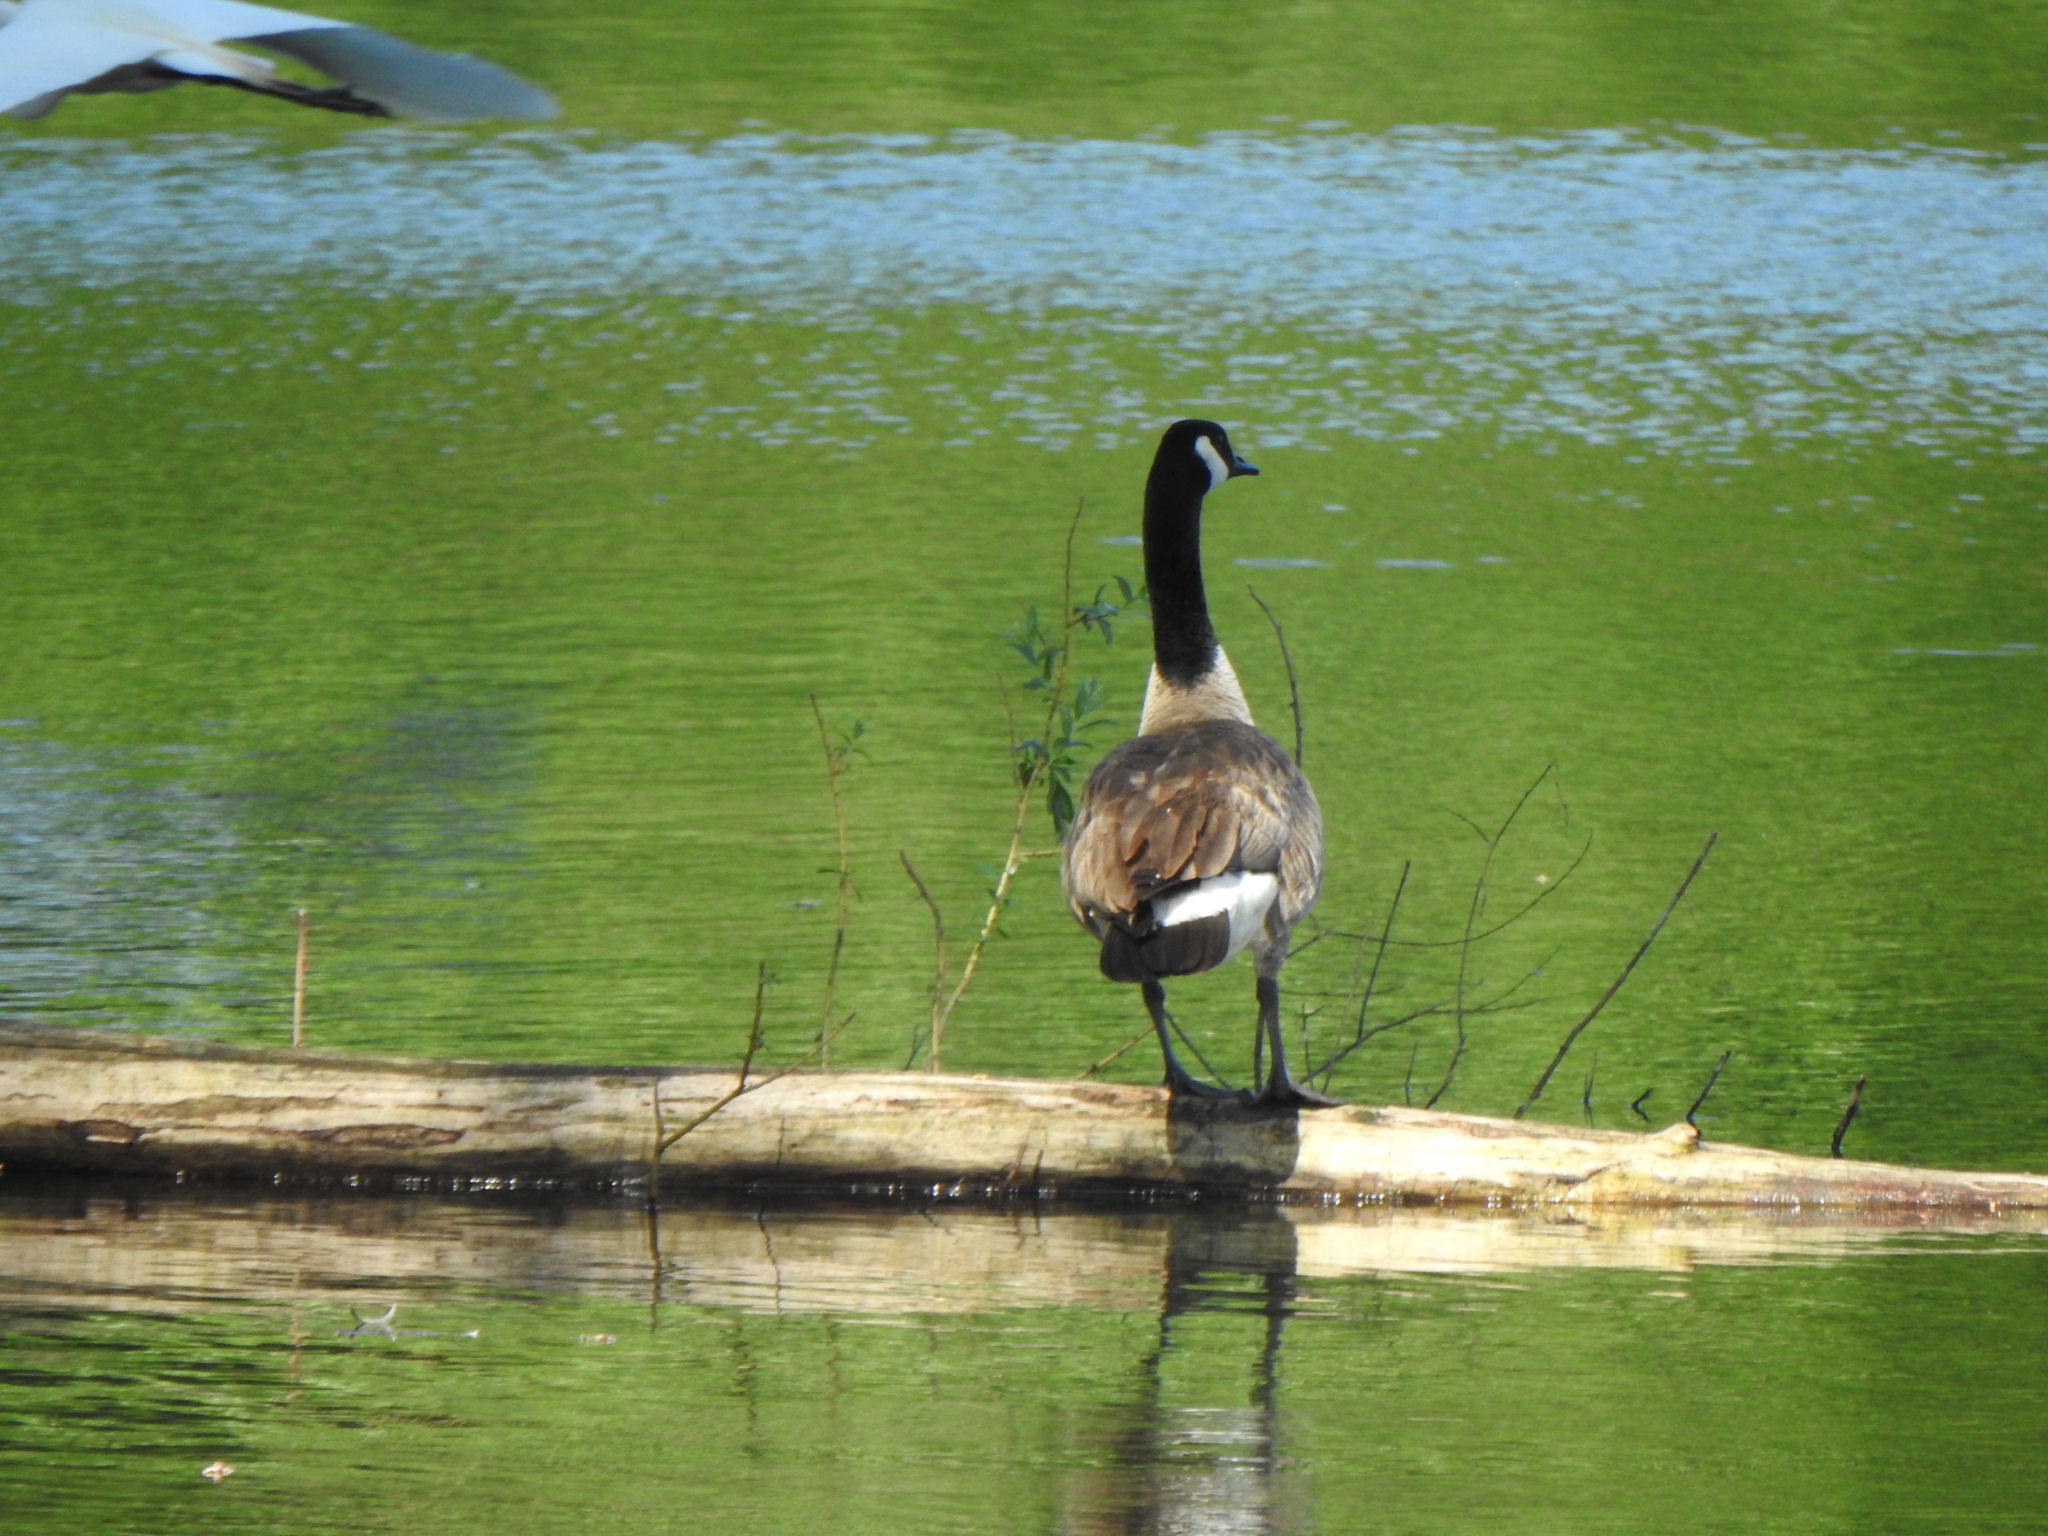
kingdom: Animalia
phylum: Chordata
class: Aves
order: Anseriformes
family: Anatidae
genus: Branta
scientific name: Branta canadensis
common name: Canada goose
